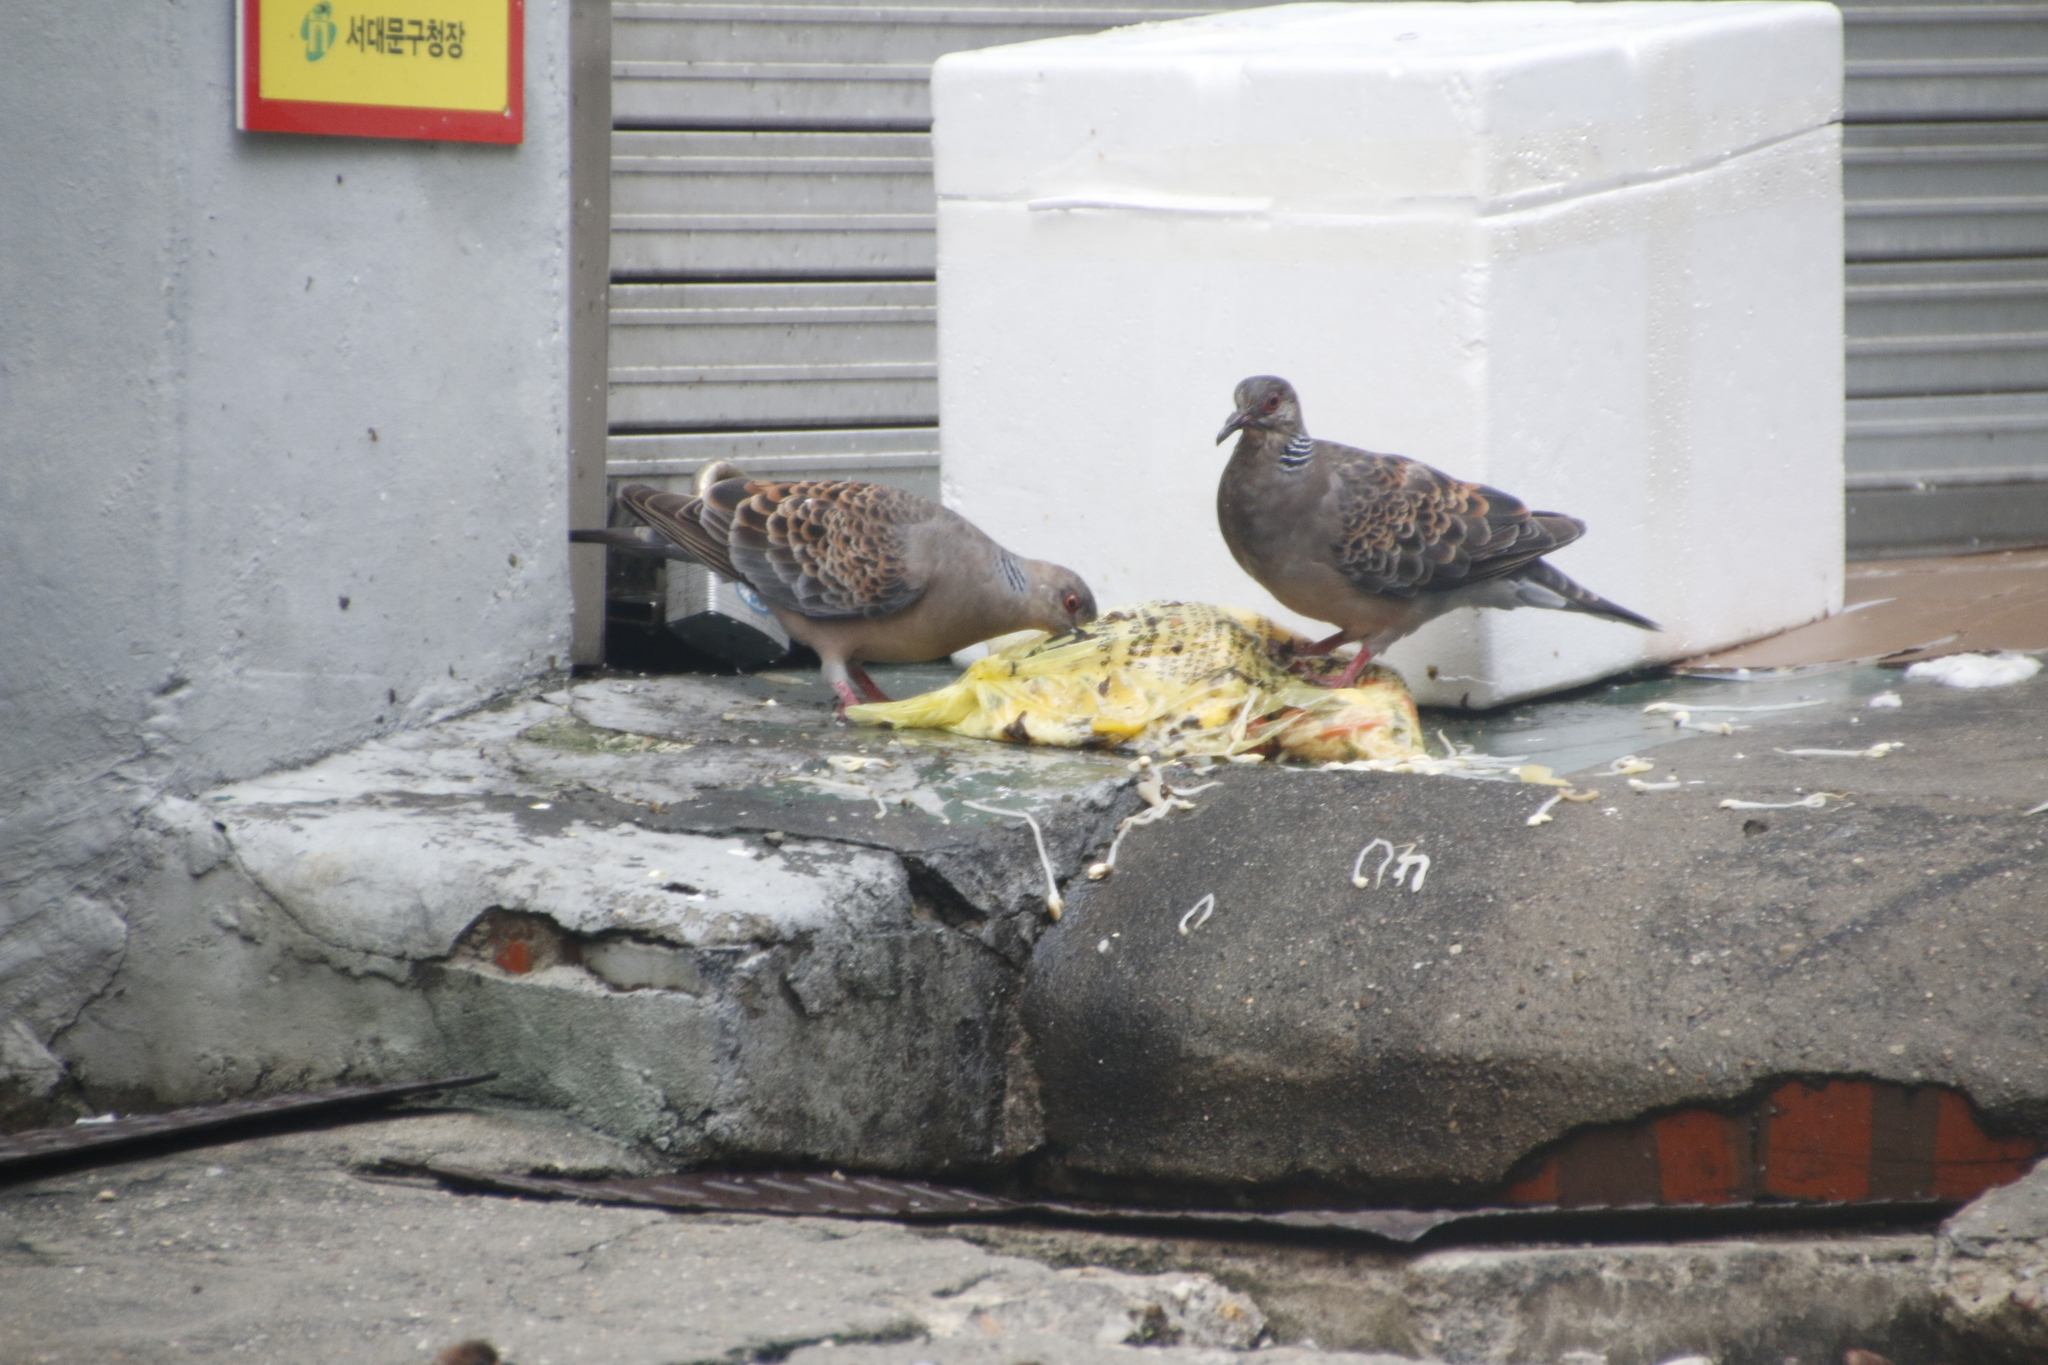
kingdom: Animalia
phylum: Chordata
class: Aves
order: Columbiformes
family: Columbidae
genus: Streptopelia
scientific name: Streptopelia orientalis
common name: Oriental turtle dove
